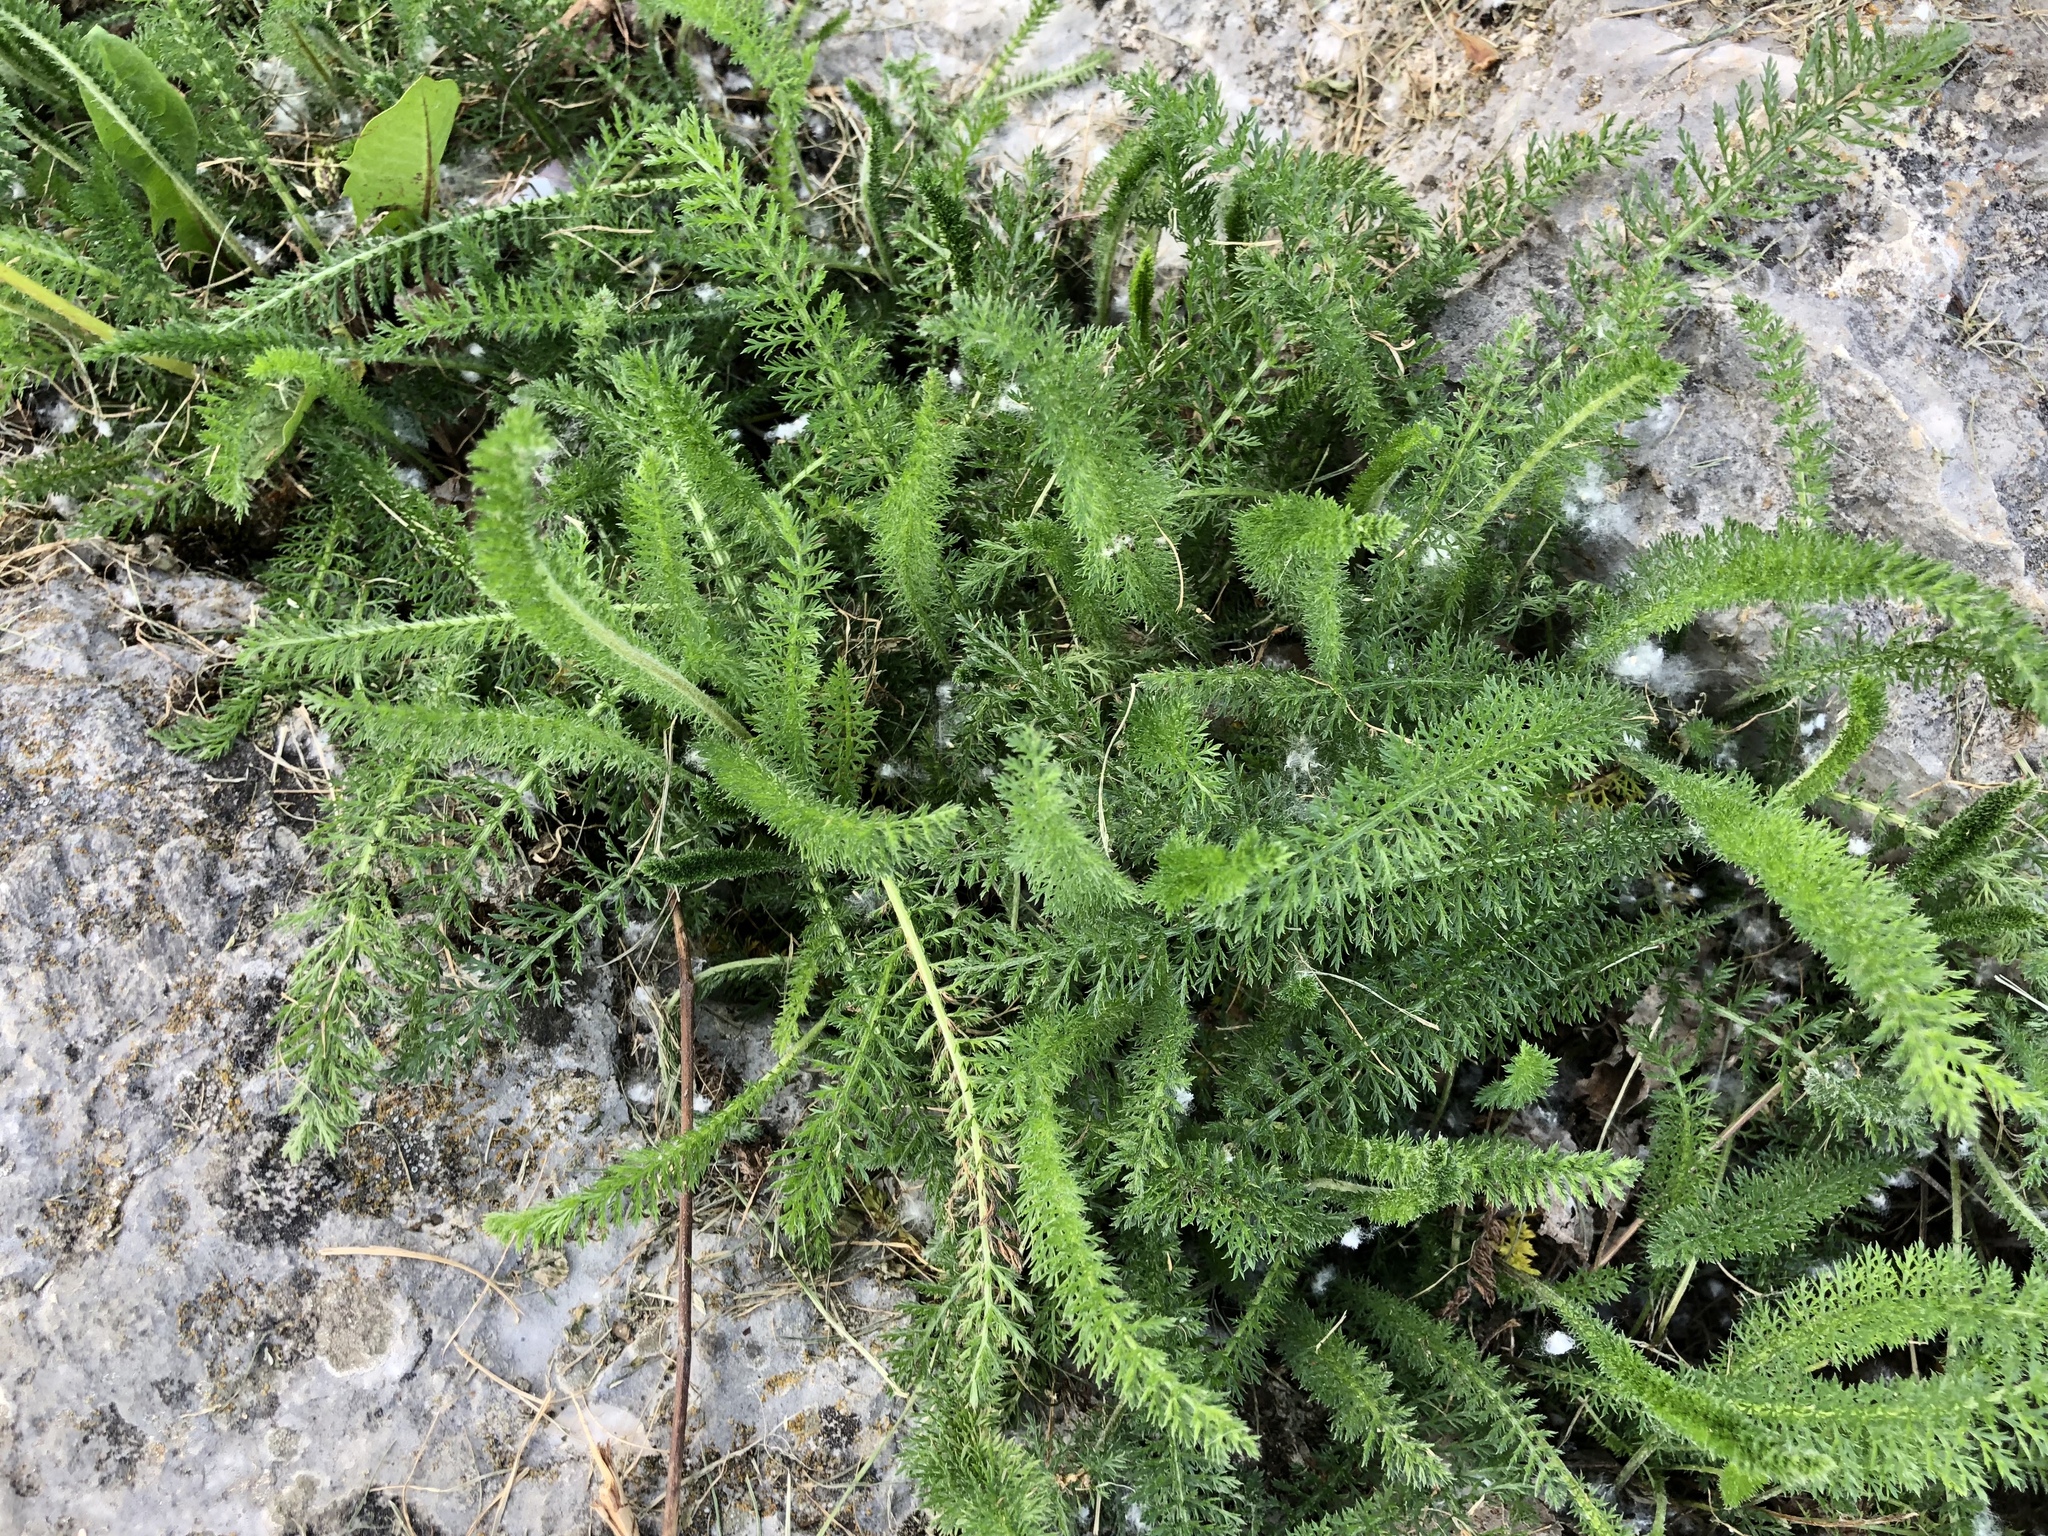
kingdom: Plantae
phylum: Tracheophyta
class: Magnoliopsida
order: Asterales
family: Asteraceae
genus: Achillea
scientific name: Achillea millefolium
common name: Yarrow
